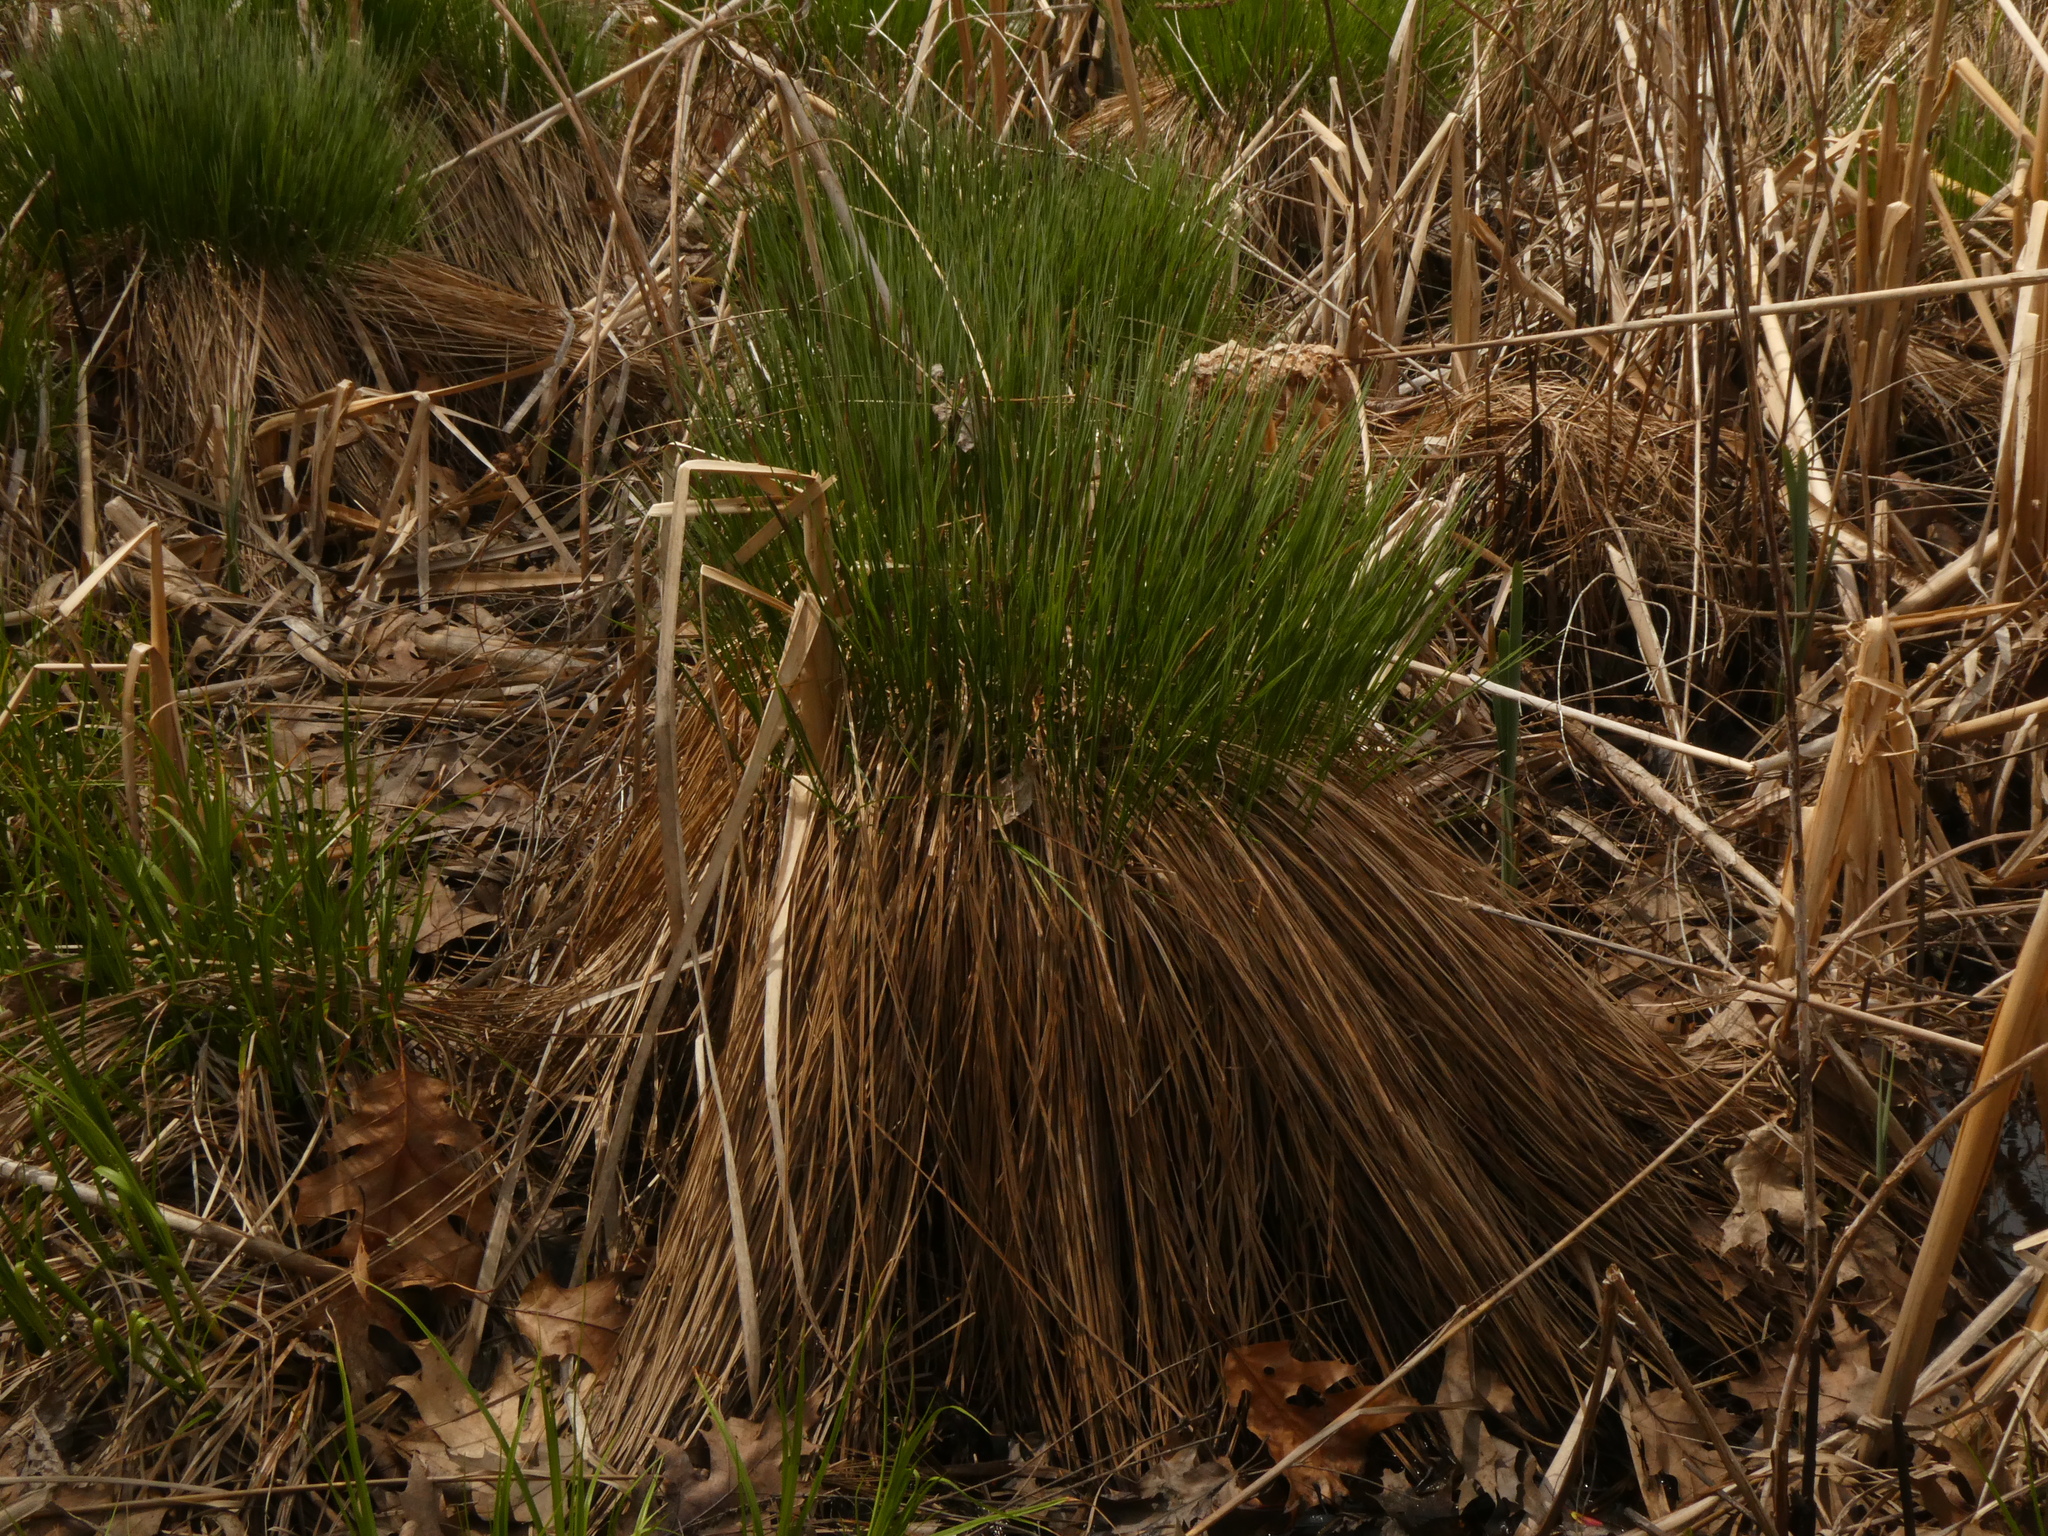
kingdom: Plantae
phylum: Tracheophyta
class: Liliopsida
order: Poales
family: Cyperaceae
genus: Carex
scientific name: Carex stricta
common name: Hummock sedge
